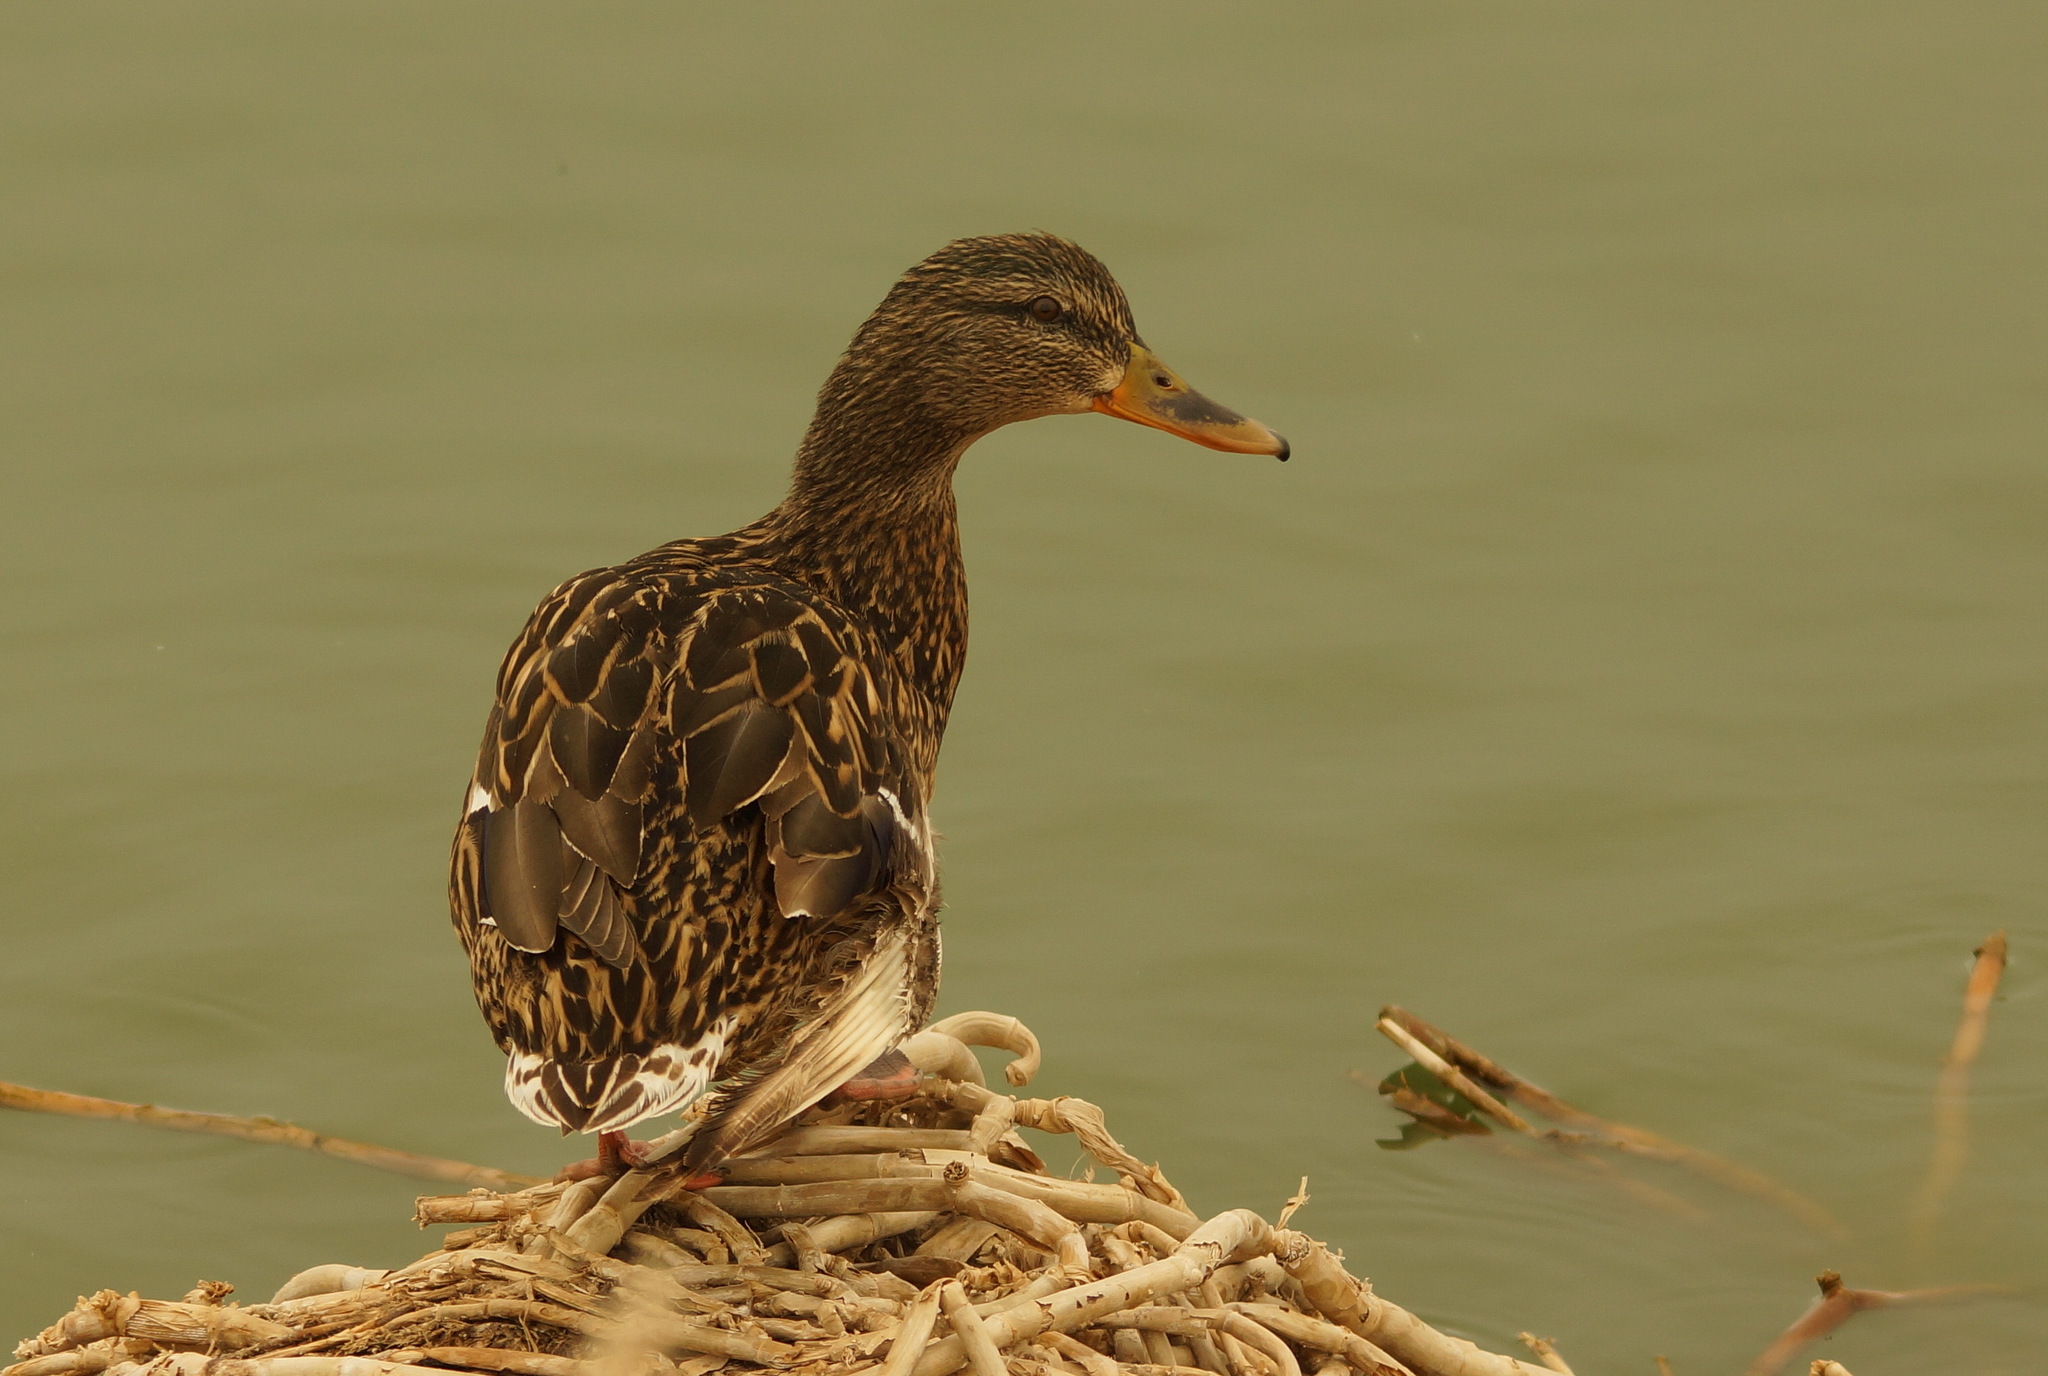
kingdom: Animalia
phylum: Chordata
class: Aves
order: Anseriformes
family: Anatidae
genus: Anas
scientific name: Anas platyrhynchos
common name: Mallard
